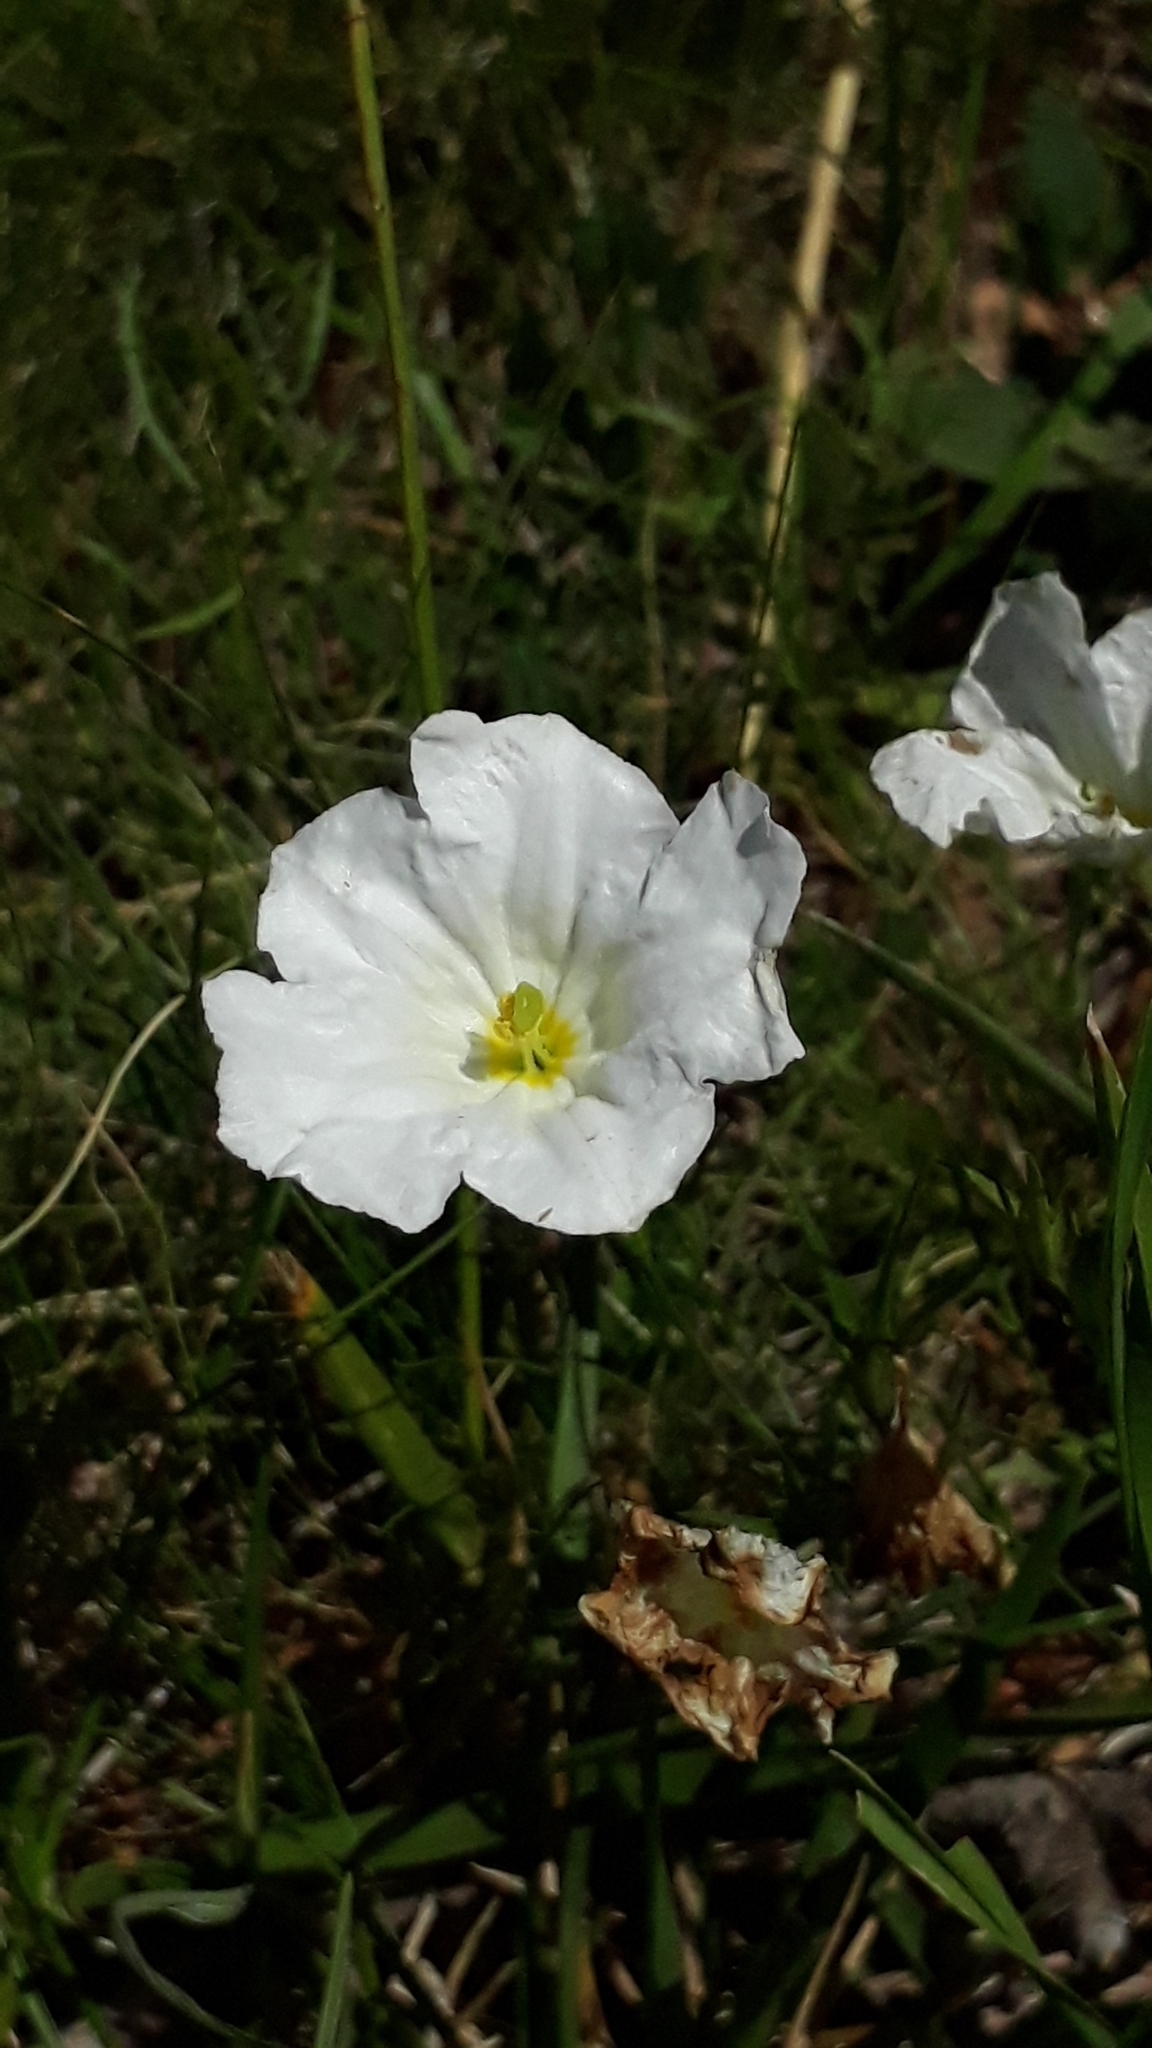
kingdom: Plantae
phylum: Tracheophyta
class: Magnoliopsida
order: Solanales
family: Solanaceae
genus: Nierembergia
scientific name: Nierembergia rigida
